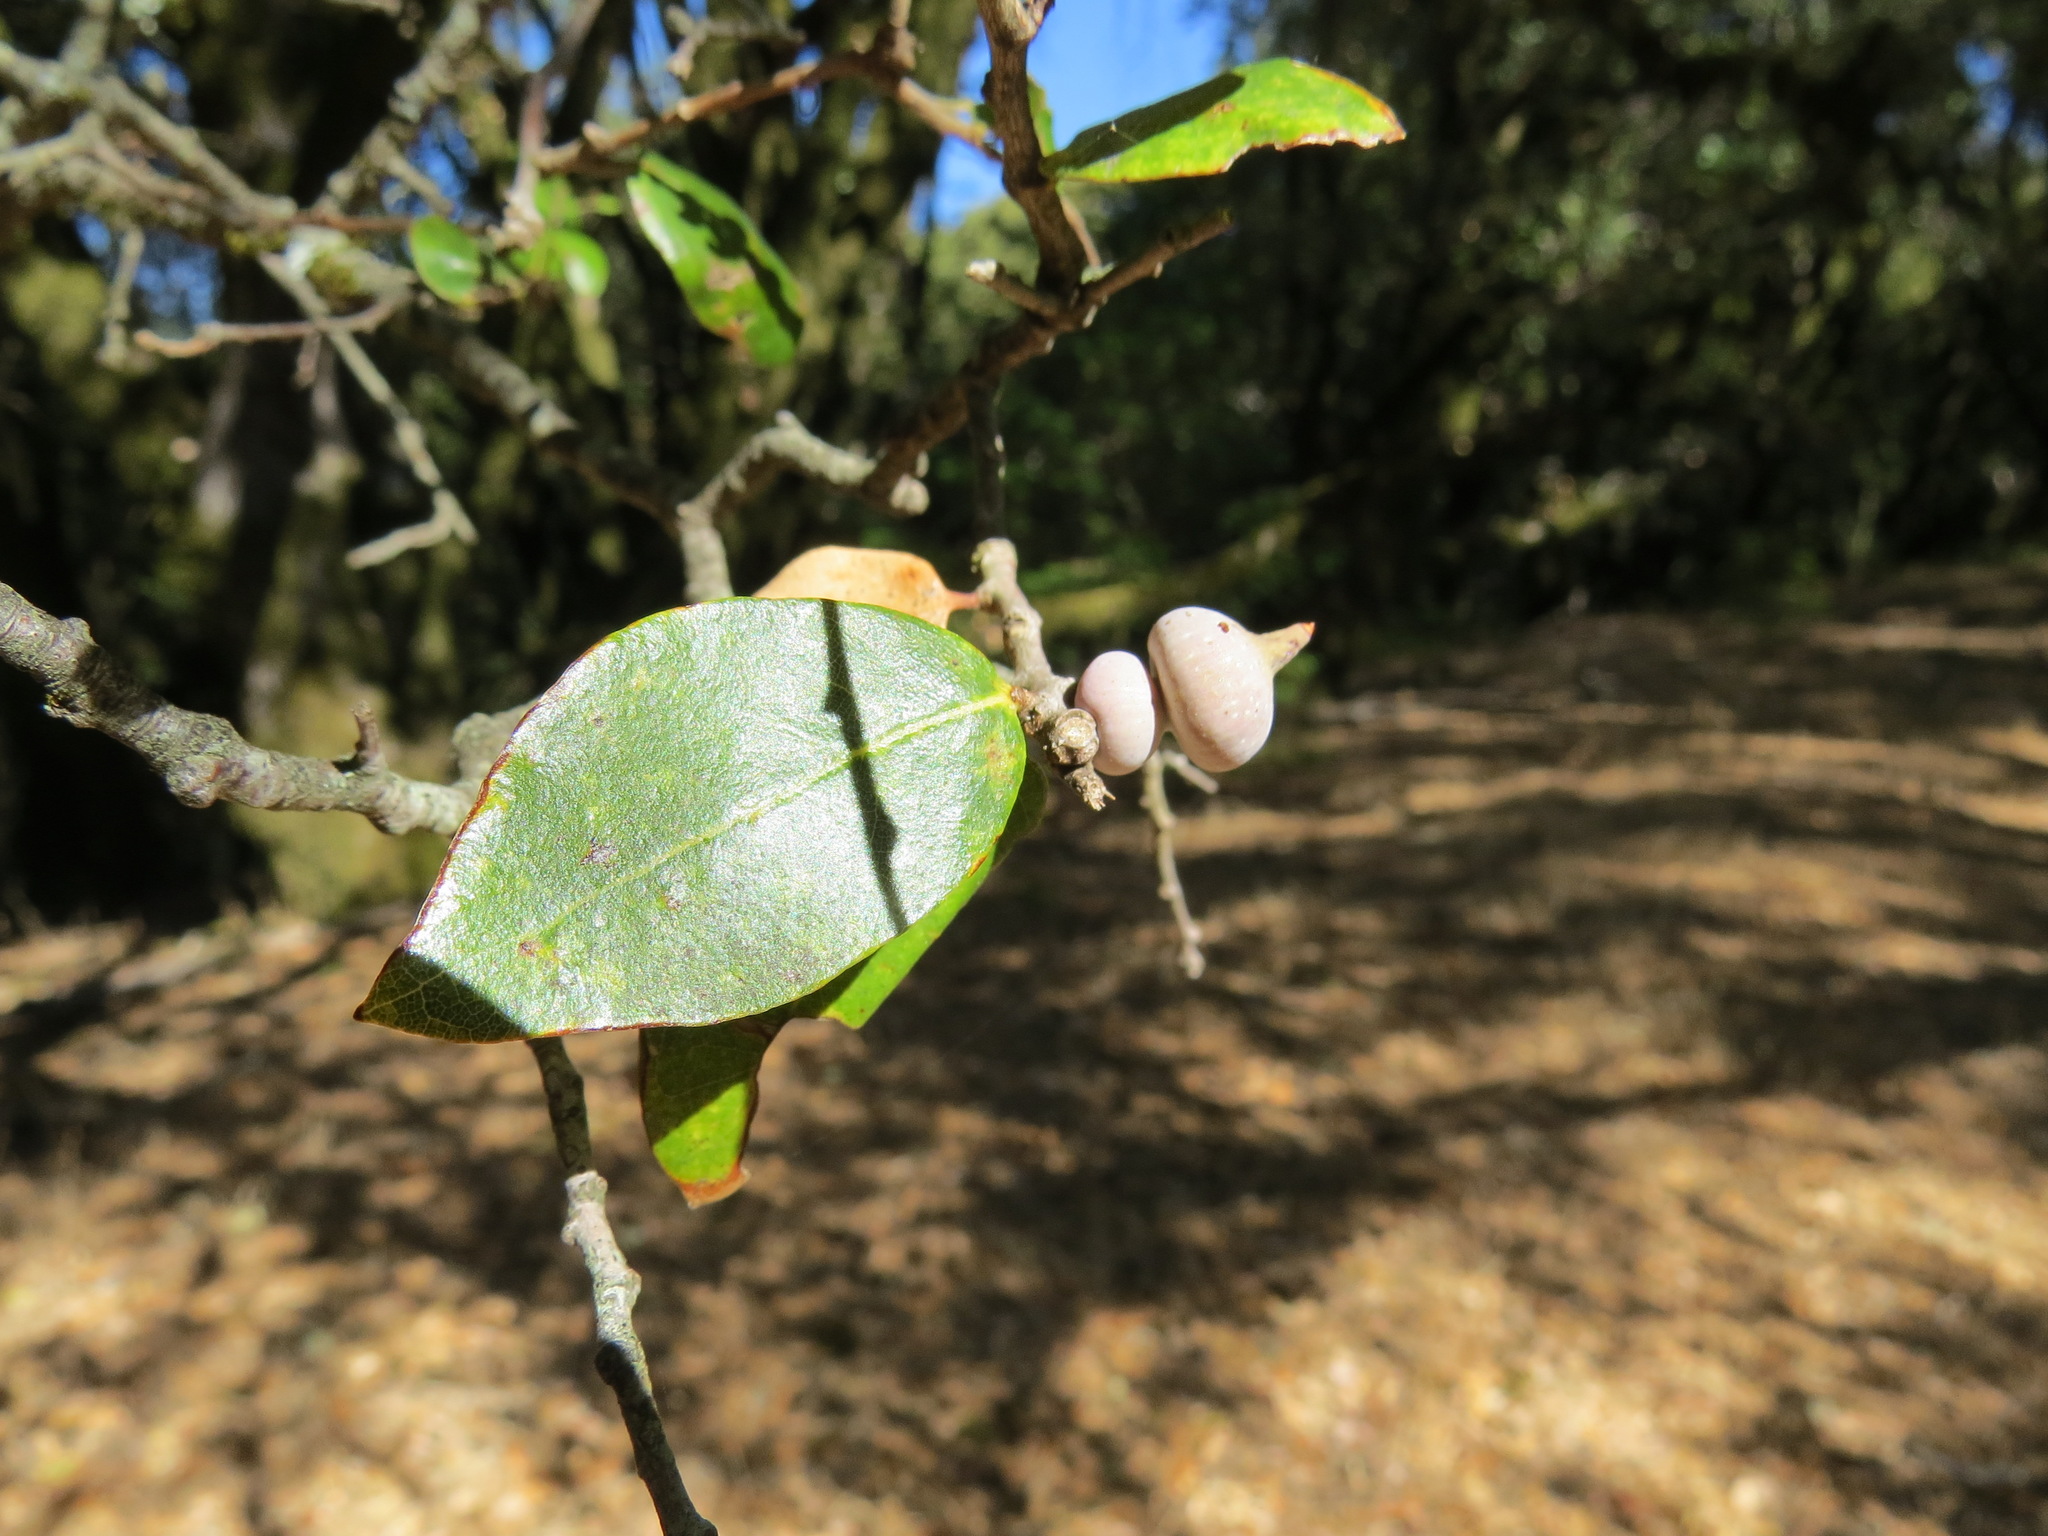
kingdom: Animalia
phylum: Arthropoda
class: Insecta
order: Hymenoptera
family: Cynipidae
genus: Heteroecus
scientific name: Heteroecus
